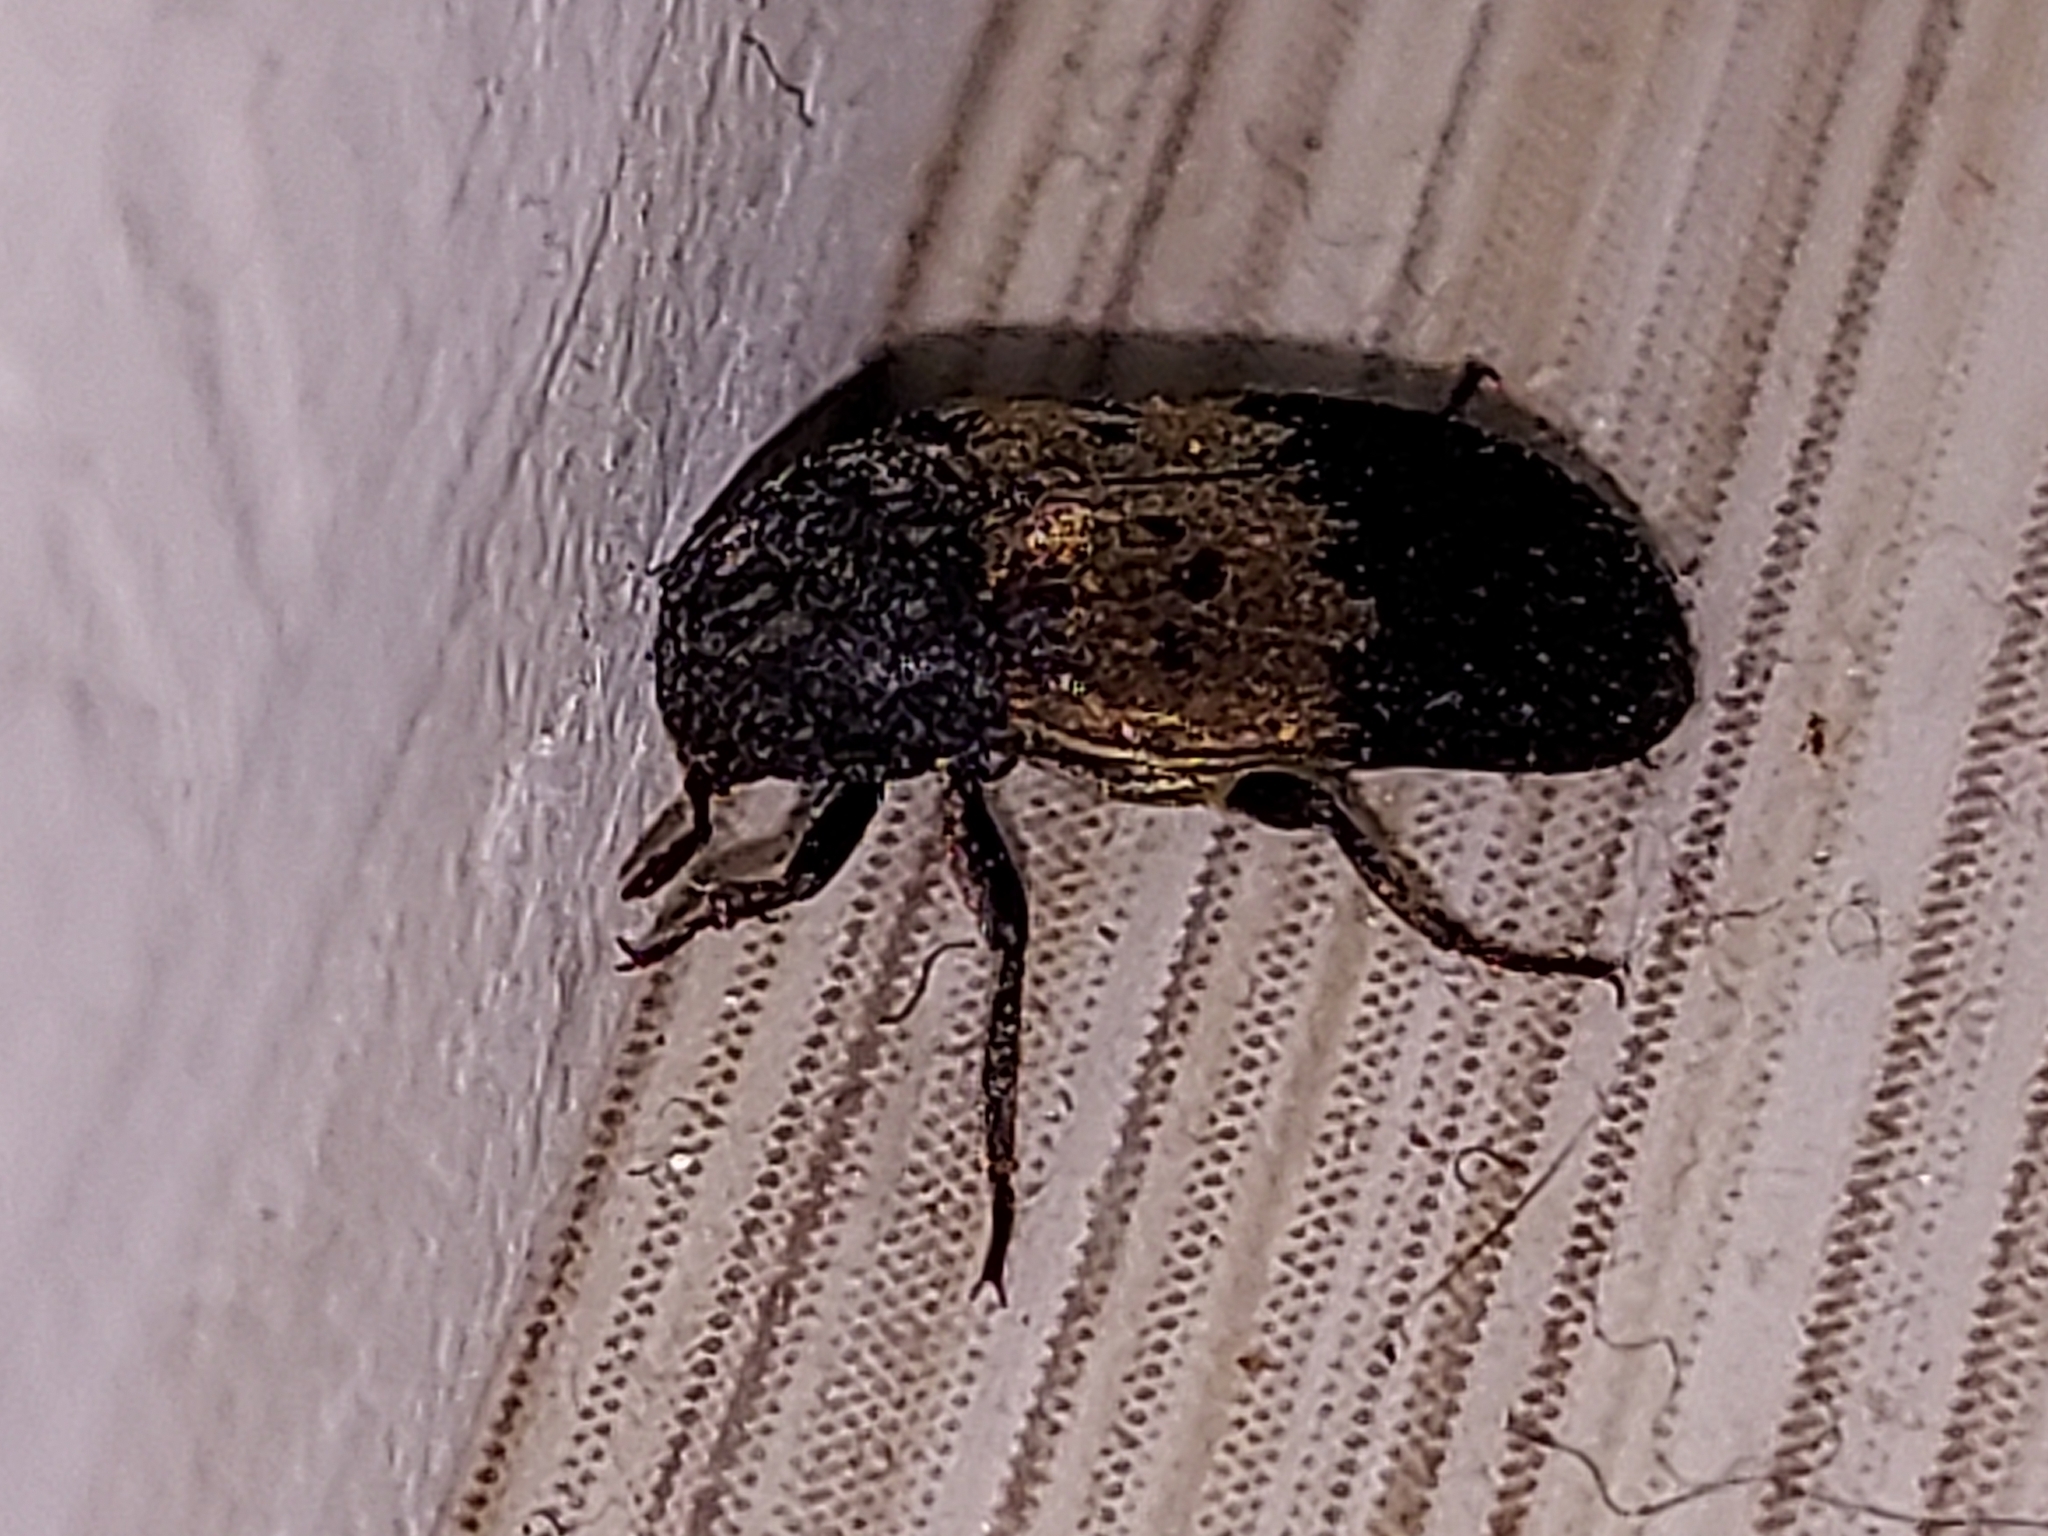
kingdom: Animalia
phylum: Arthropoda
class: Insecta
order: Coleoptera
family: Dermestidae
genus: Dermestes
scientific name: Dermestes lardarius
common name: Larder beetle
